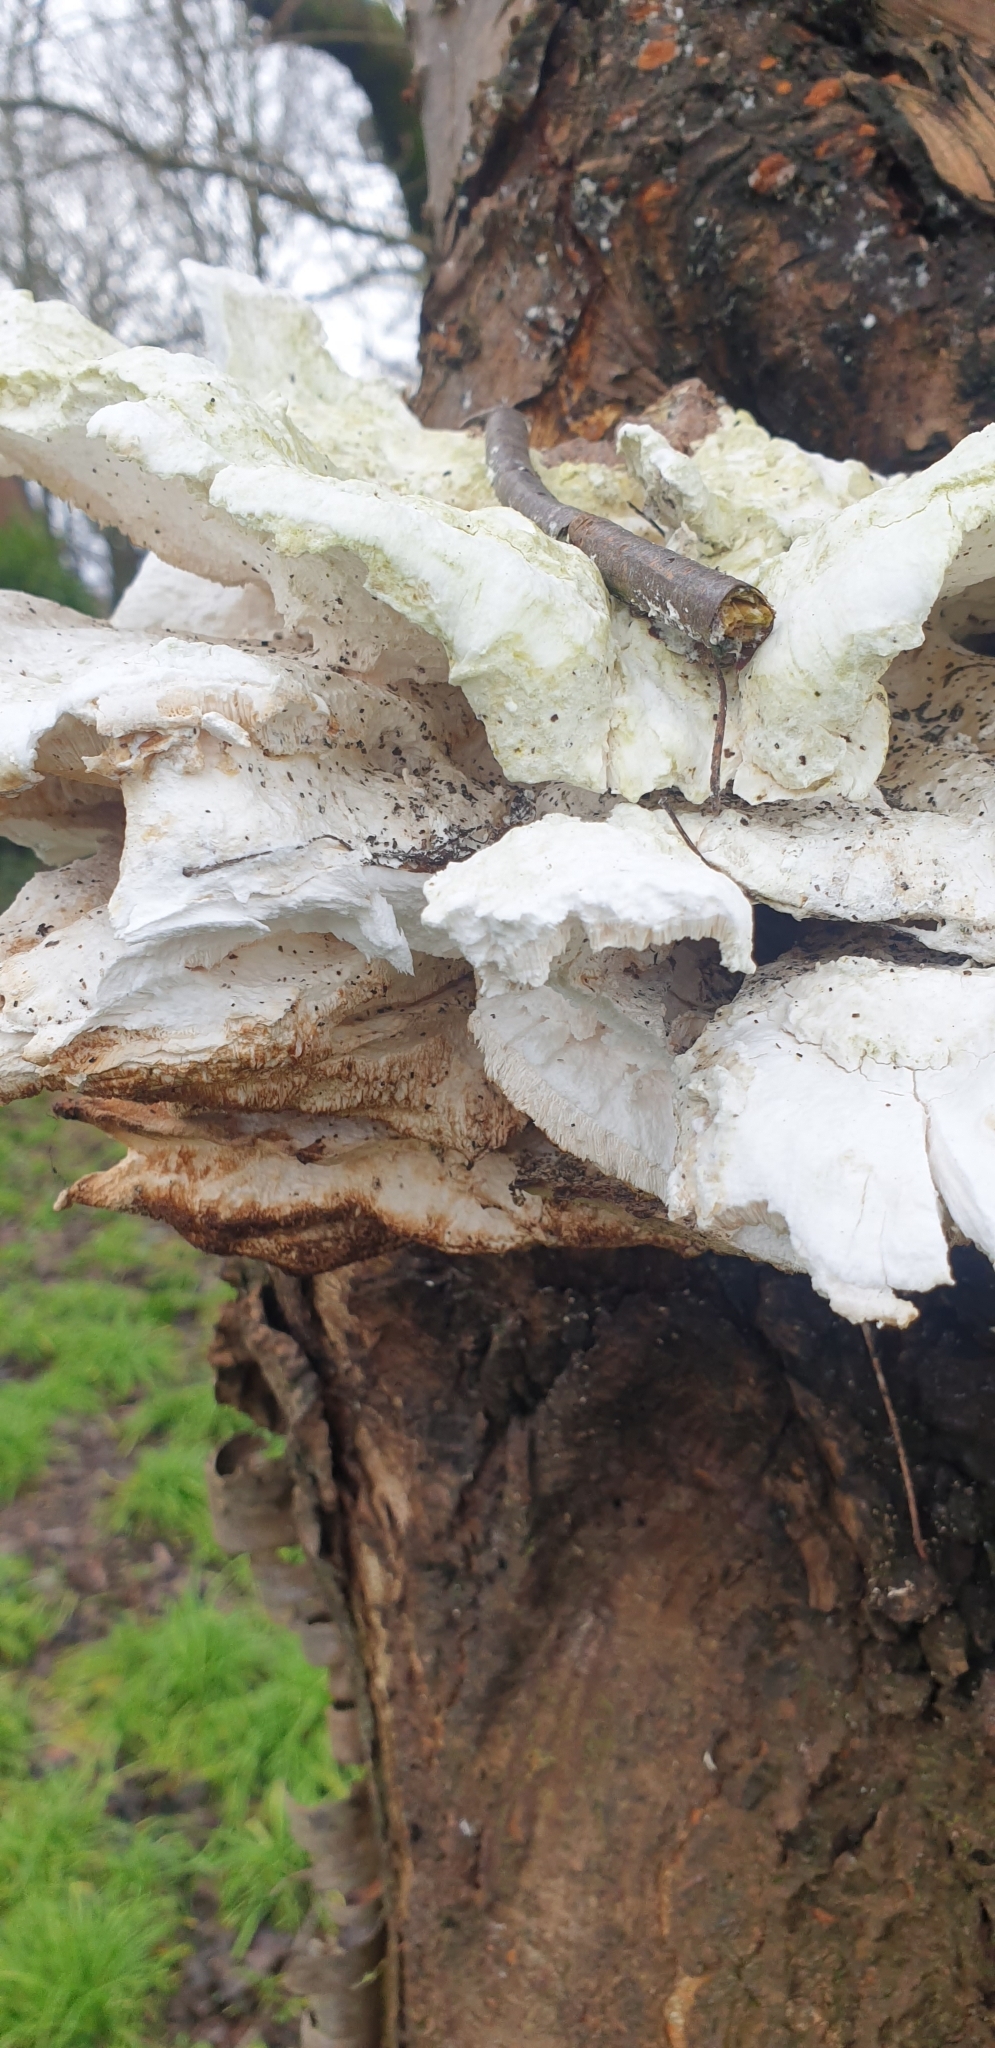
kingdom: Fungi
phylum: Basidiomycota
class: Agaricomycetes
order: Polyporales
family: Laetiporaceae
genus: Laetiporus
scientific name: Laetiporus sulphureus
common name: Chicken of the woods
